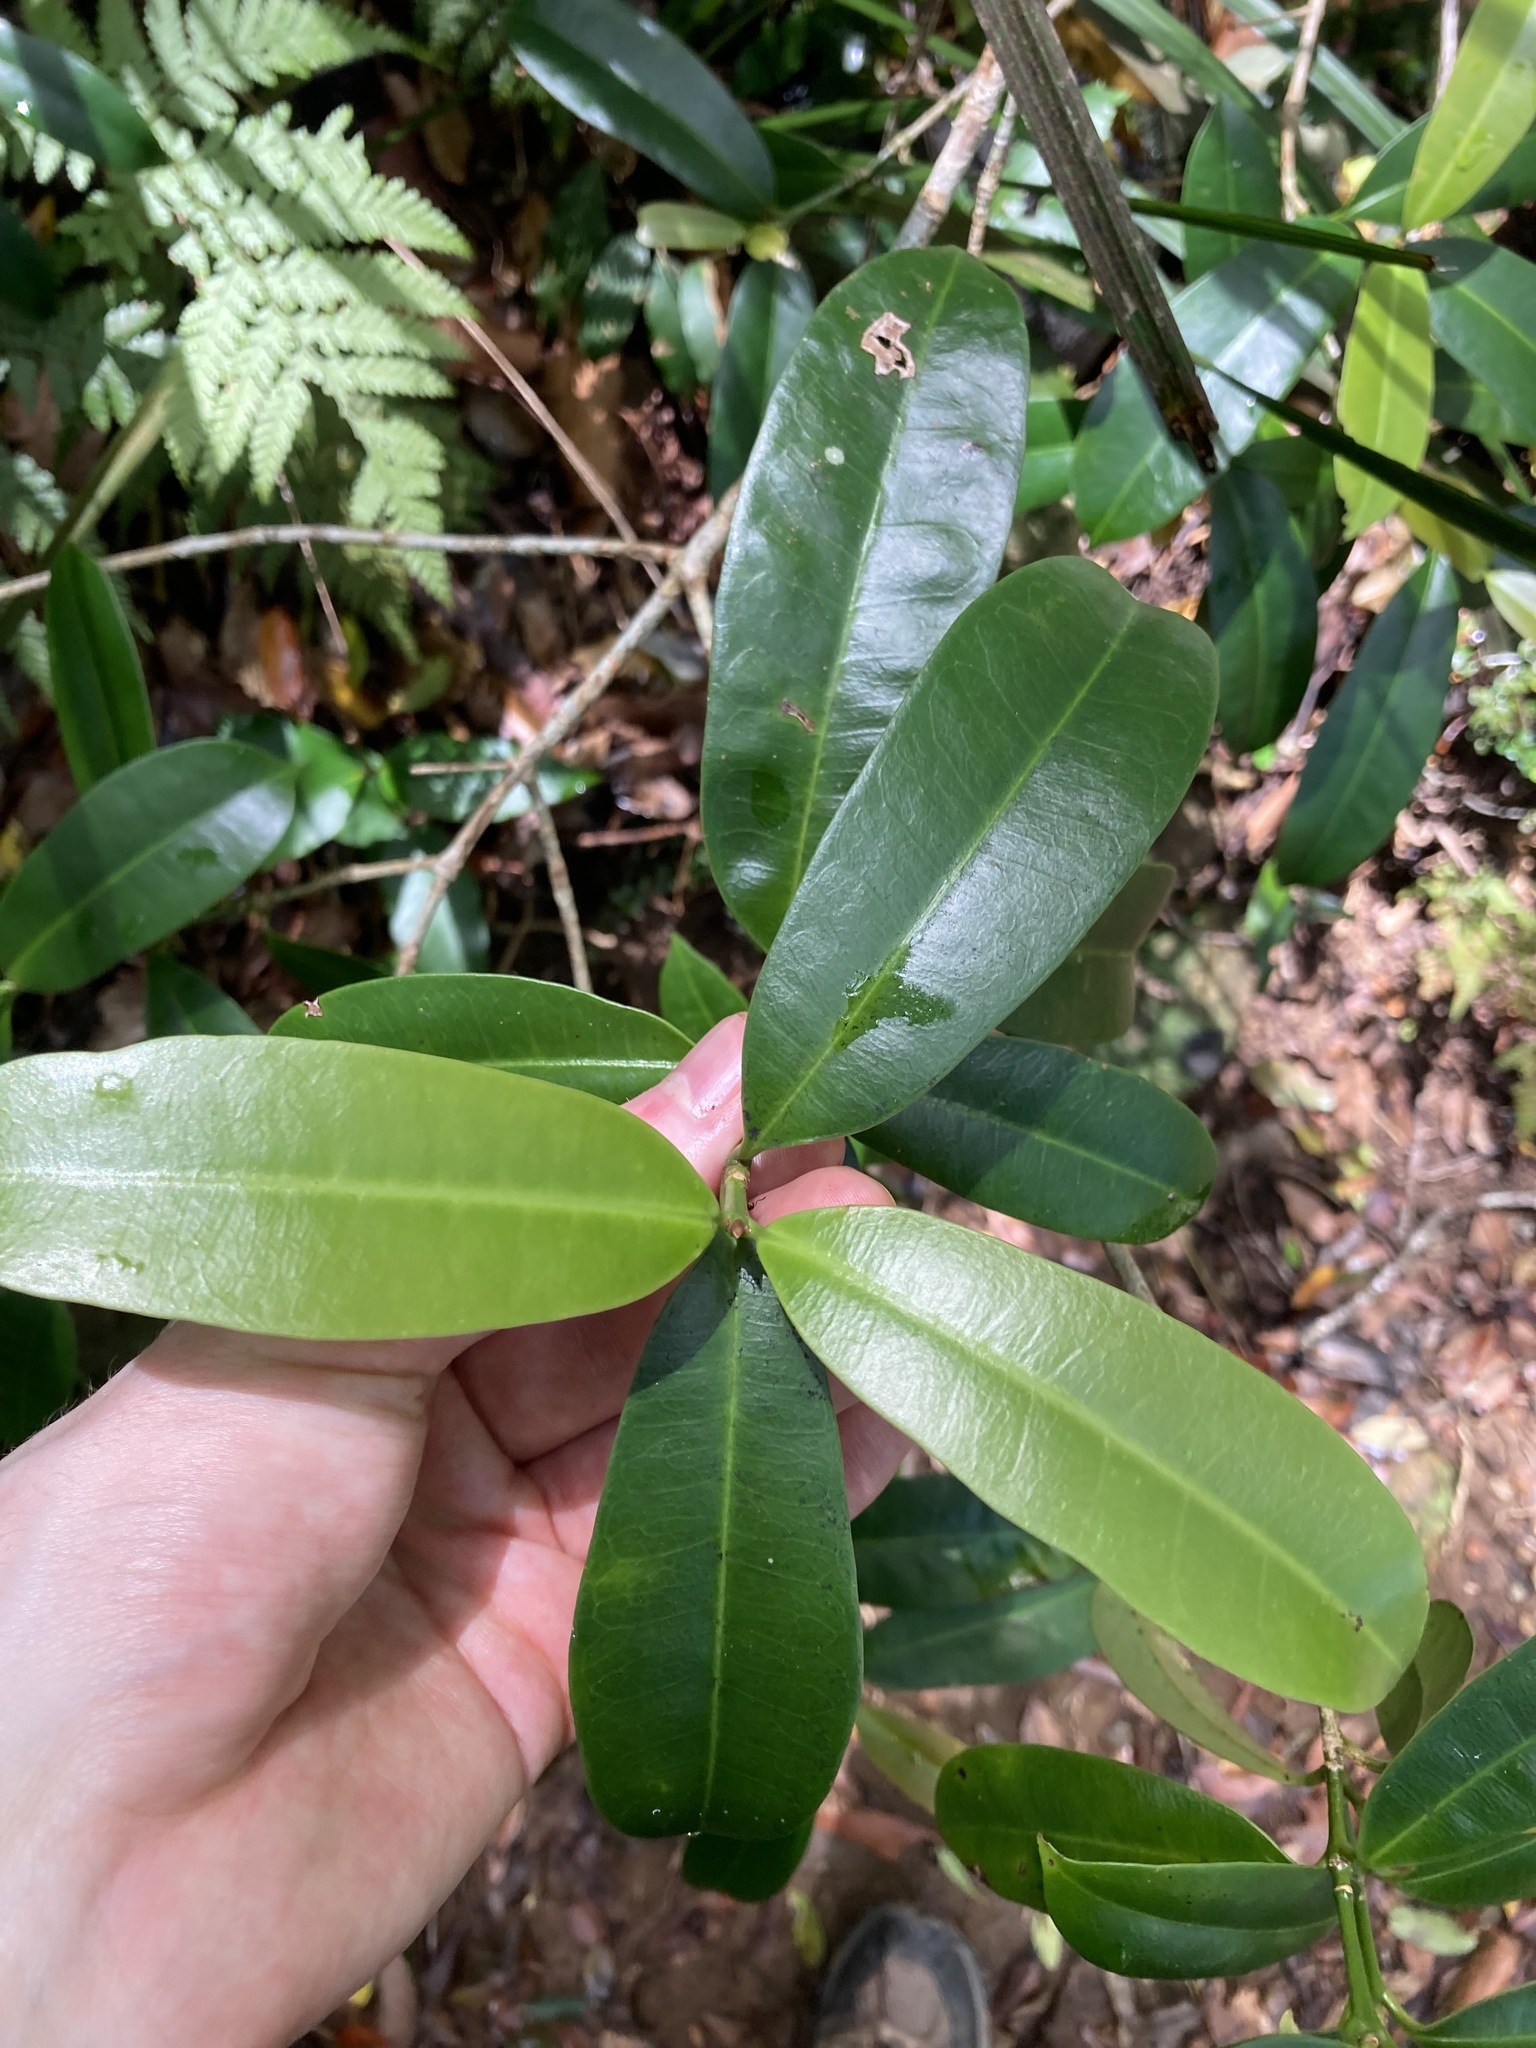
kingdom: Plantae
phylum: Tracheophyta
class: Magnoliopsida
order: Malpighiales
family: Euphorbiaceae
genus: Baloghia
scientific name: Baloghia inophylla
